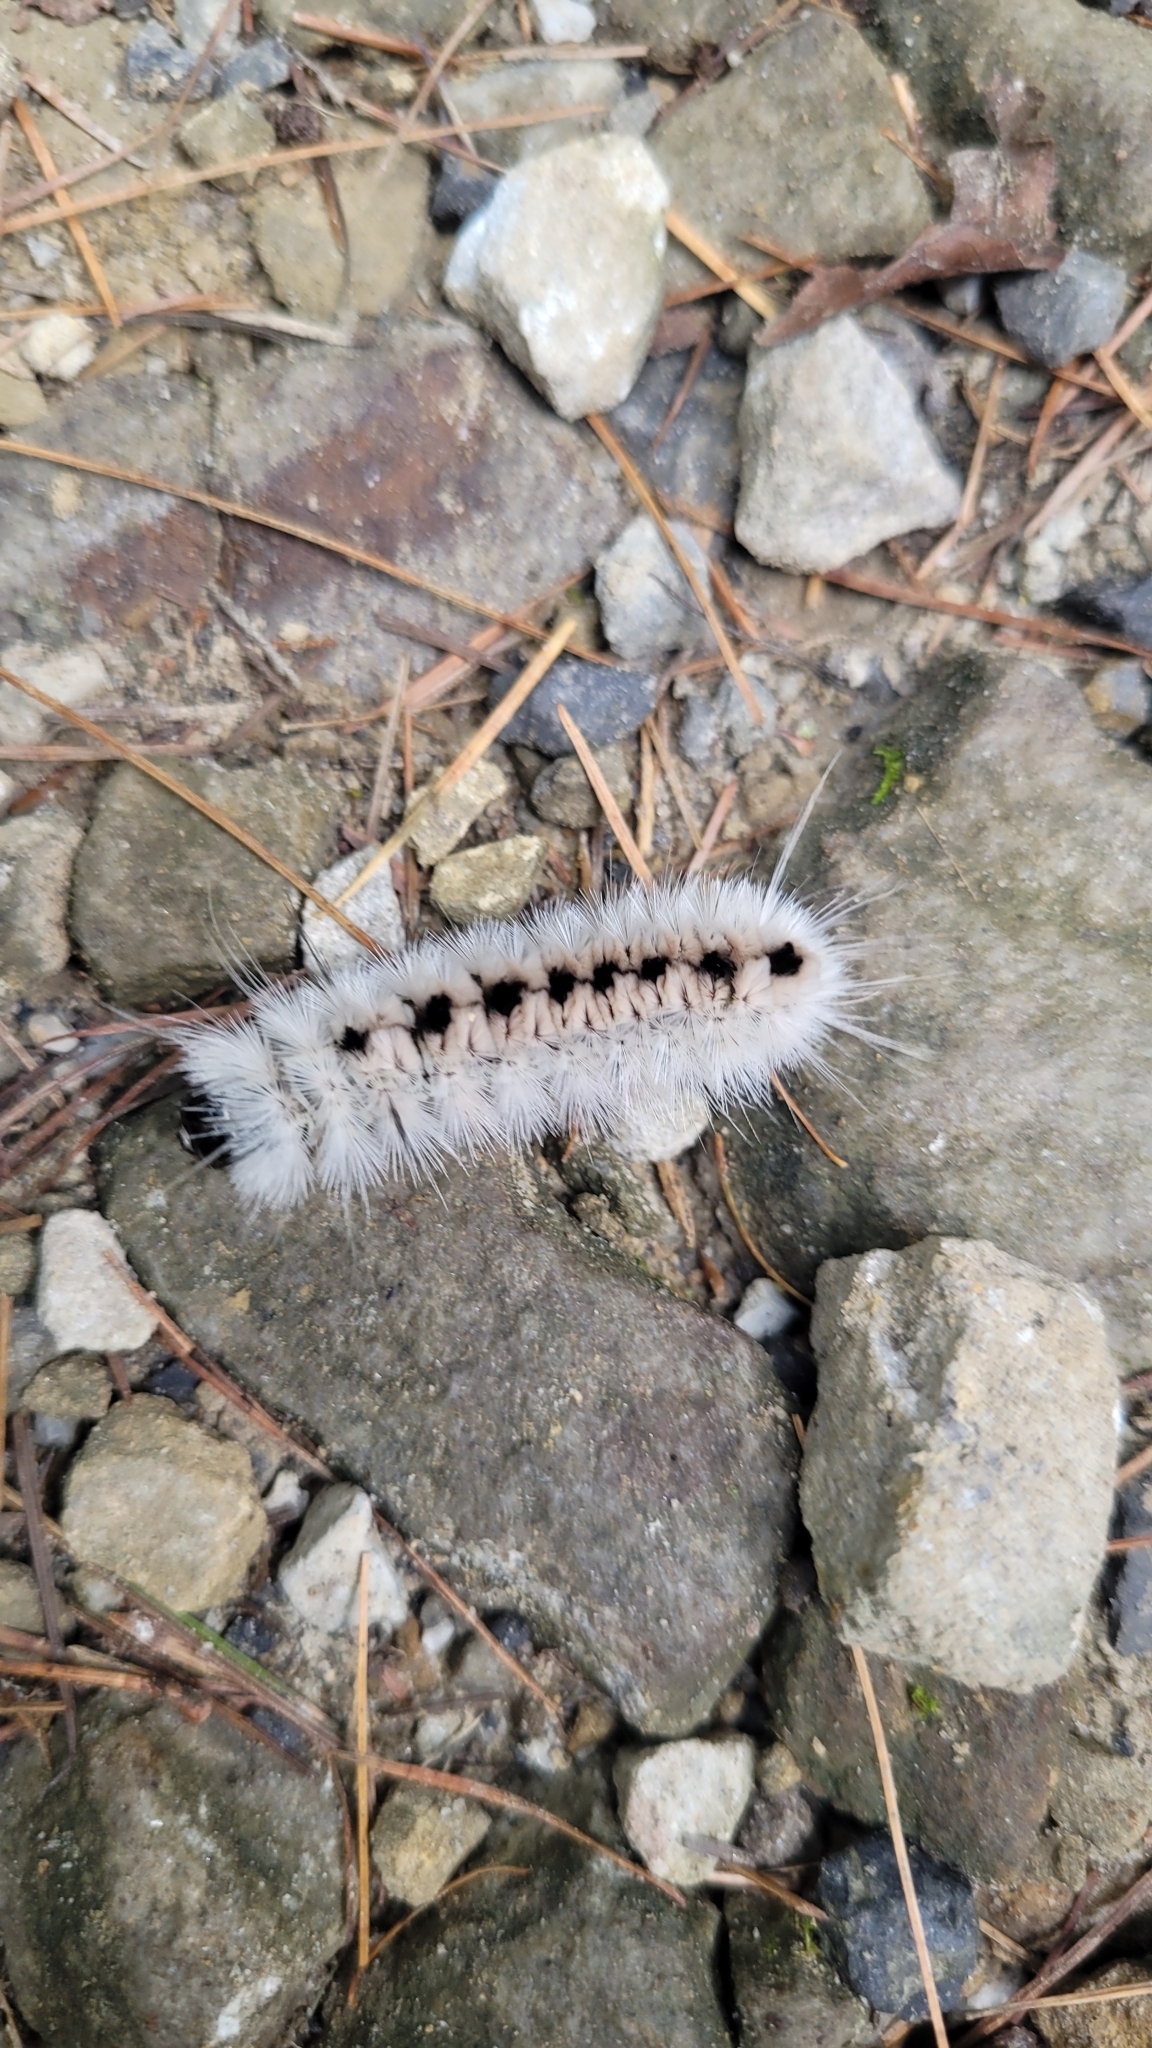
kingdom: Animalia
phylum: Arthropoda
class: Insecta
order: Lepidoptera
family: Erebidae
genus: Lophocampa
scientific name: Lophocampa caryae
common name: Hickory tussock moth
